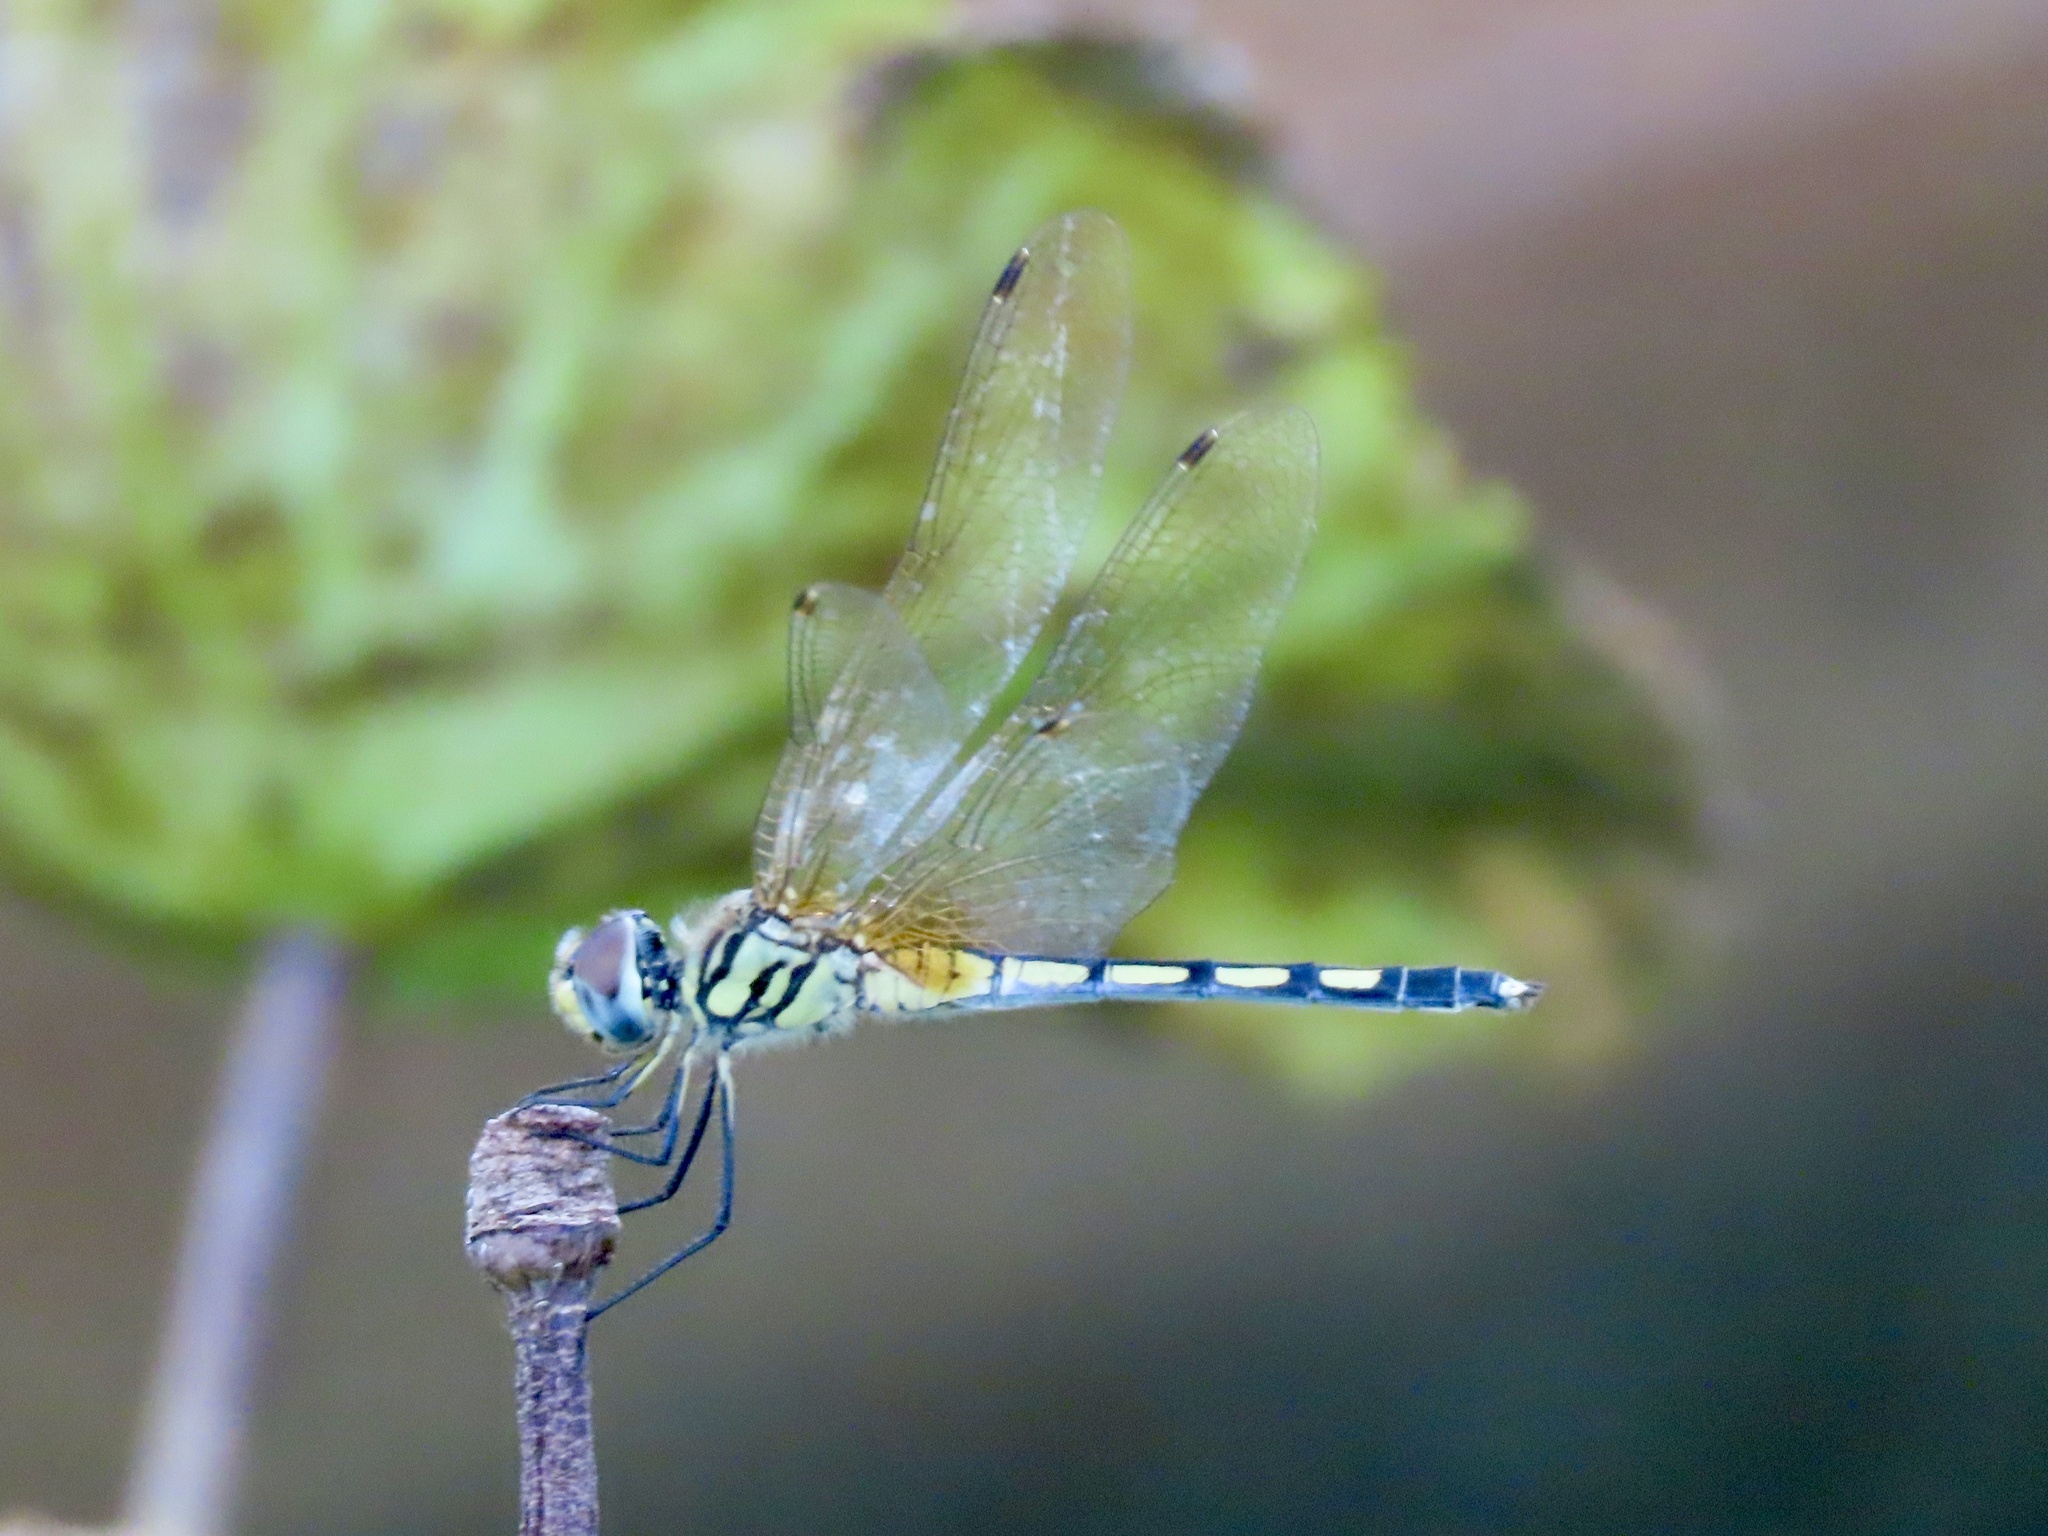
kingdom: Animalia
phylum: Arthropoda
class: Insecta
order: Odonata
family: Libellulidae
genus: Trithemis
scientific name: Trithemis pallidinervis
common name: Dancing dropwing
